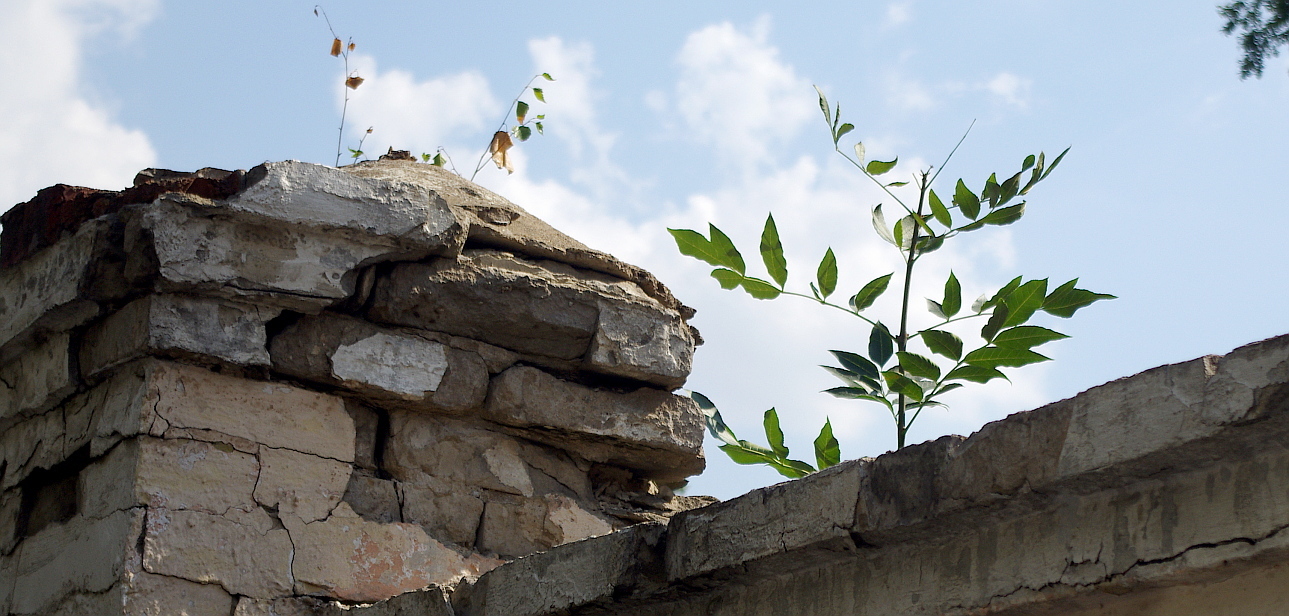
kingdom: Plantae
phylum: Tracheophyta
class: Magnoliopsida
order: Lamiales
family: Oleaceae
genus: Fraxinus
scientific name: Fraxinus pennsylvanica
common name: Green ash
